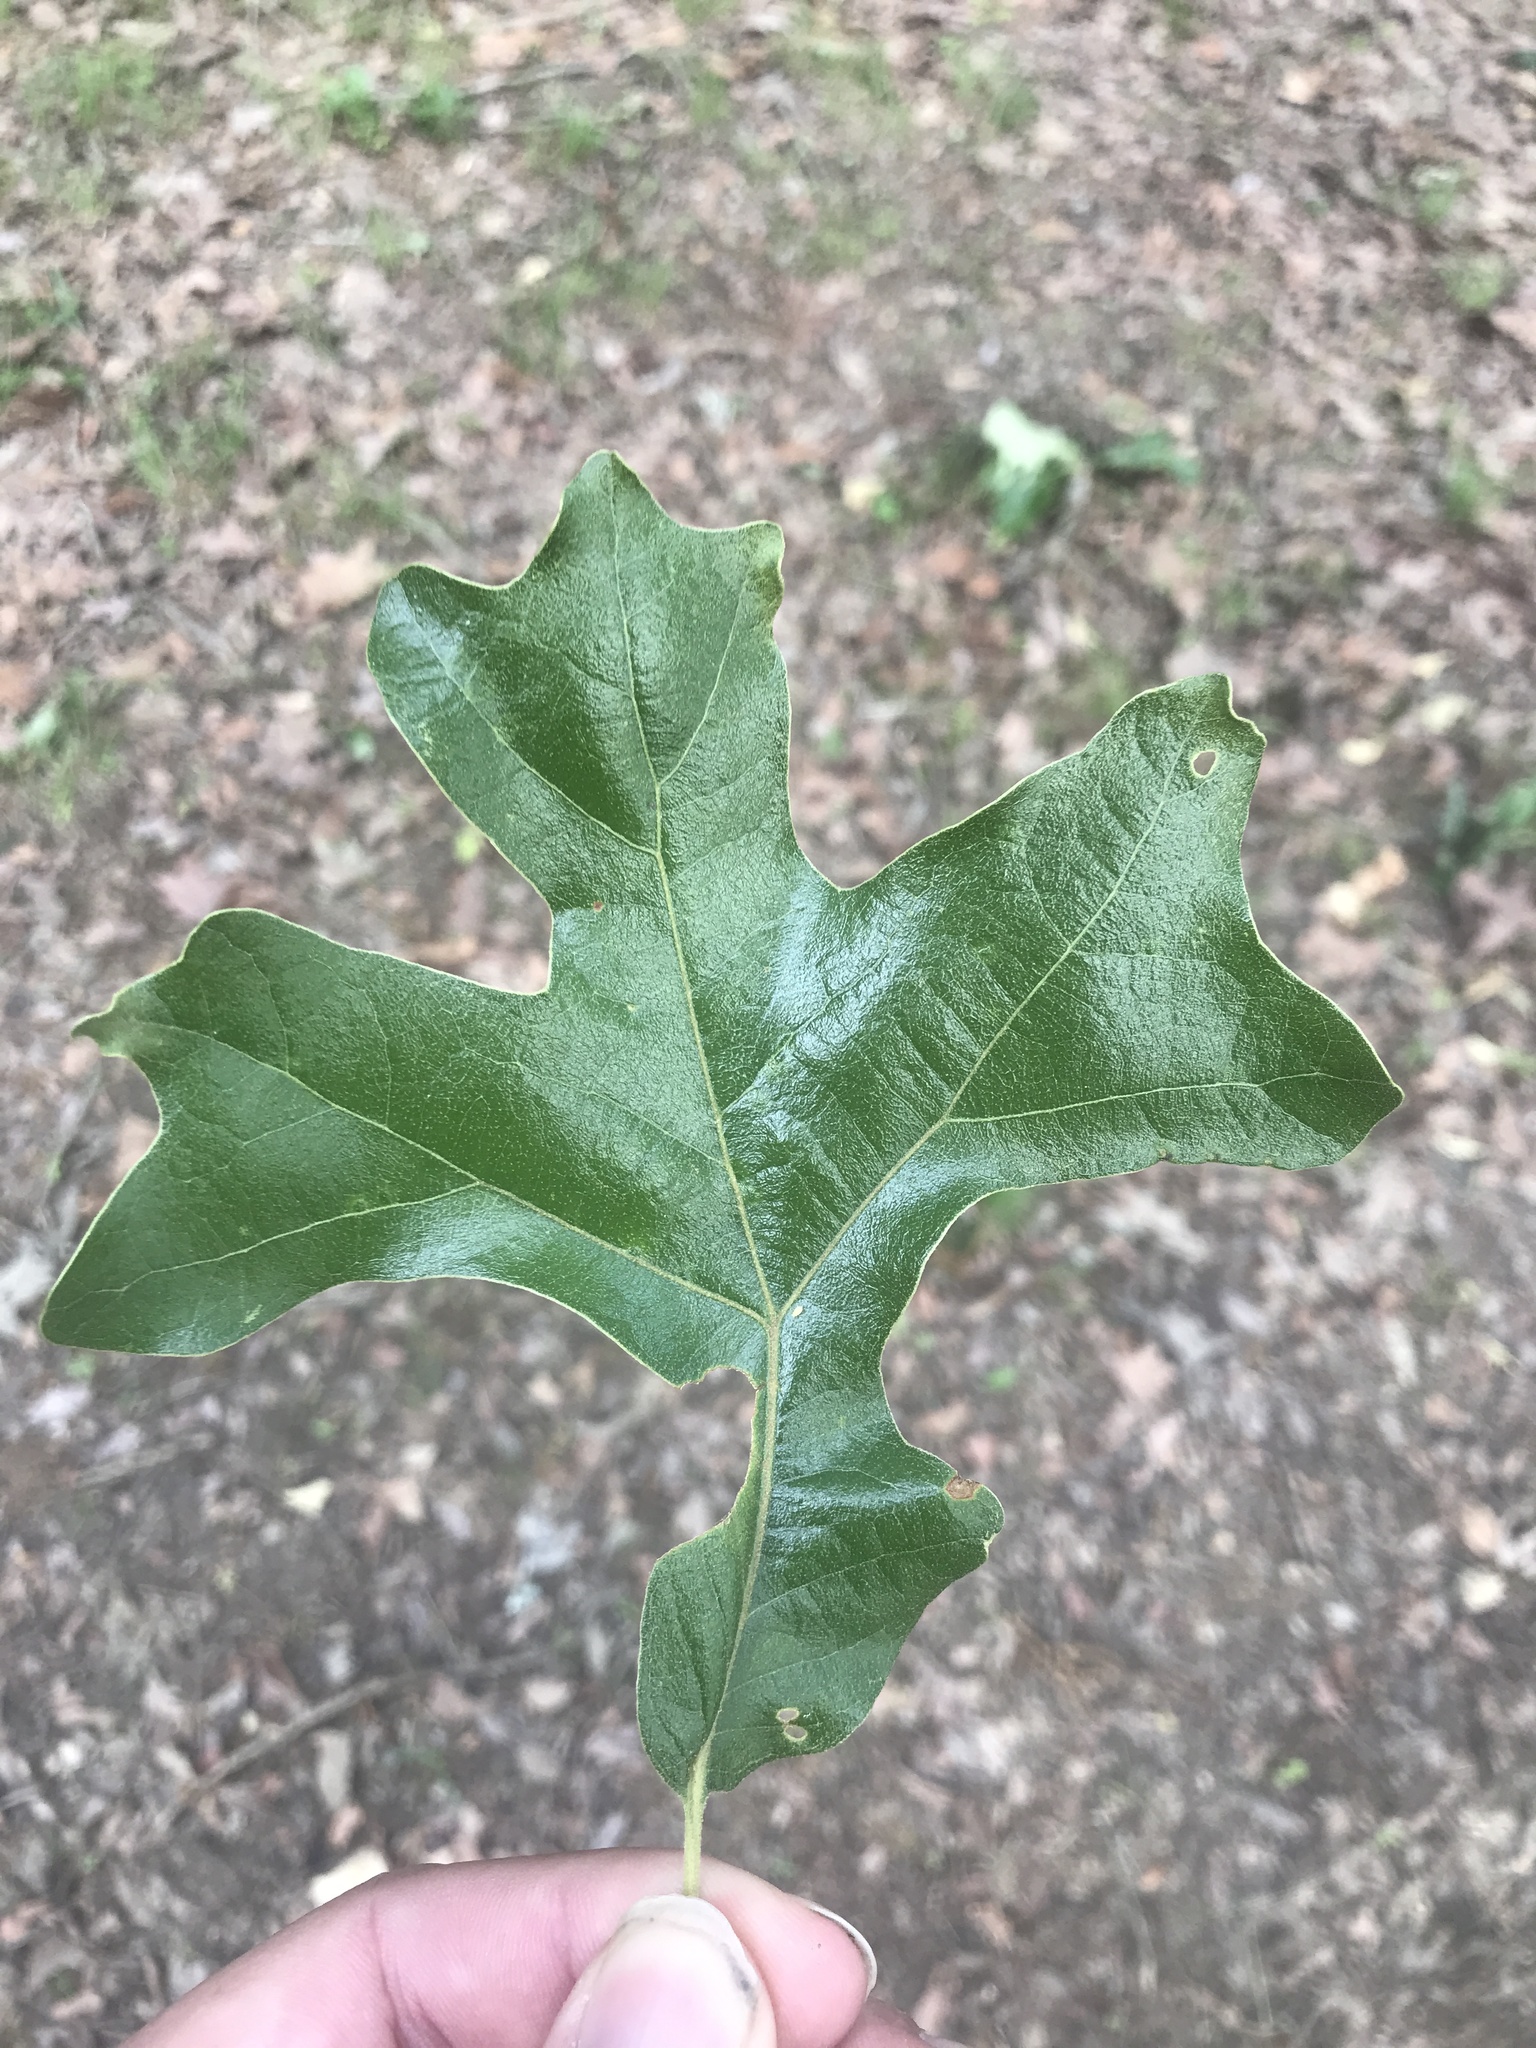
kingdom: Plantae
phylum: Tracheophyta
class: Magnoliopsida
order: Fagales
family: Fagaceae
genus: Quercus
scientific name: Quercus stellata
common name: Post oak
